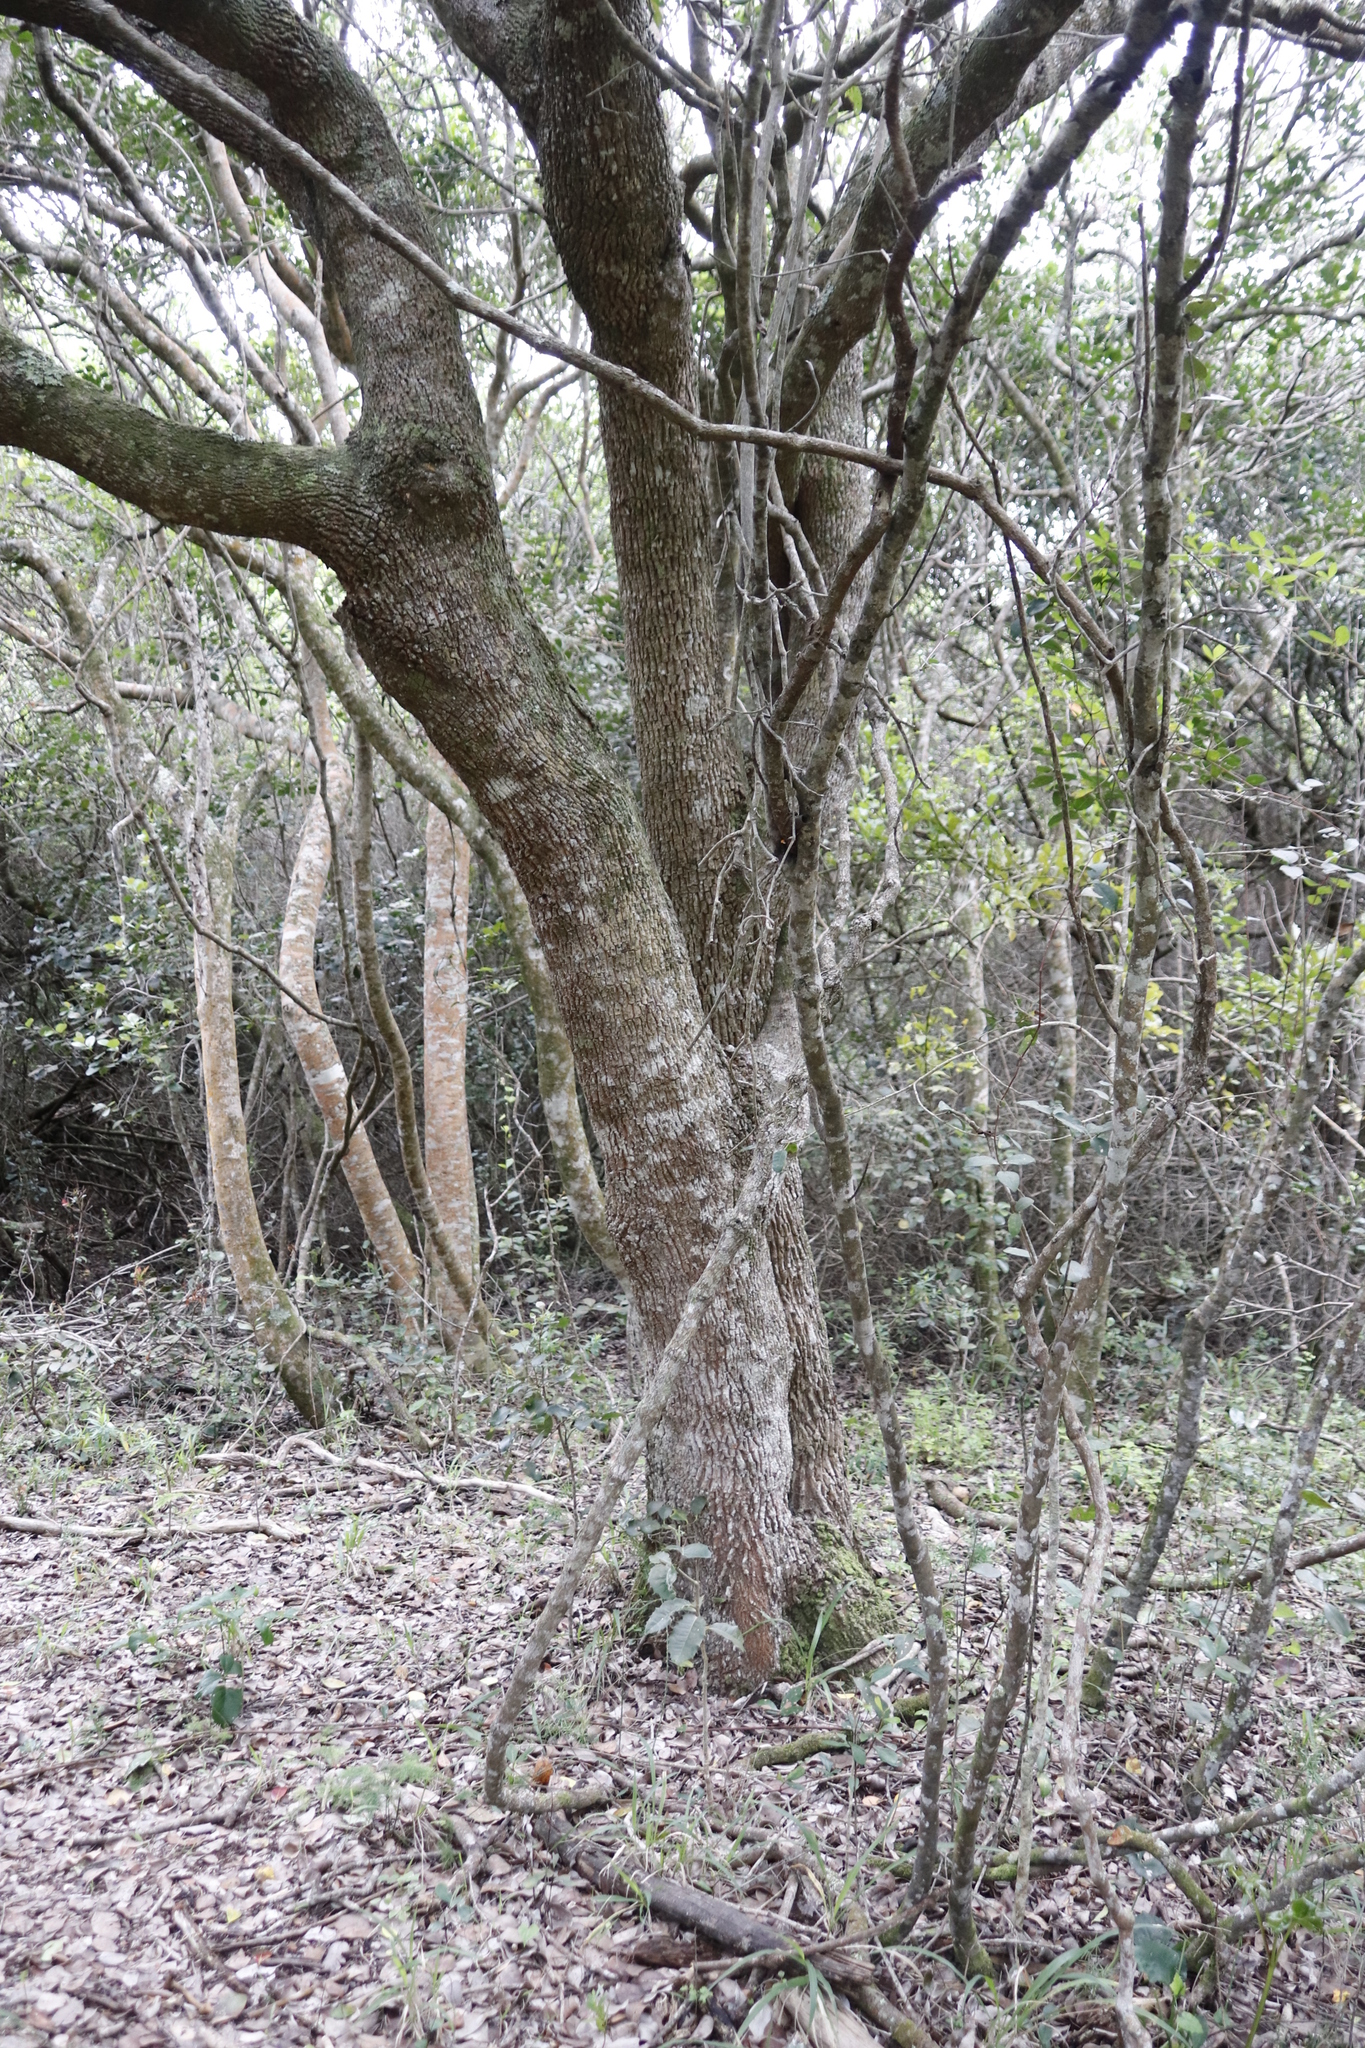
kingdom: Plantae
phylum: Tracheophyta
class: Magnoliopsida
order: Celastrales
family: Celastraceae
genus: Cassine
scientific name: Cassine peragua
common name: Cape saffron
